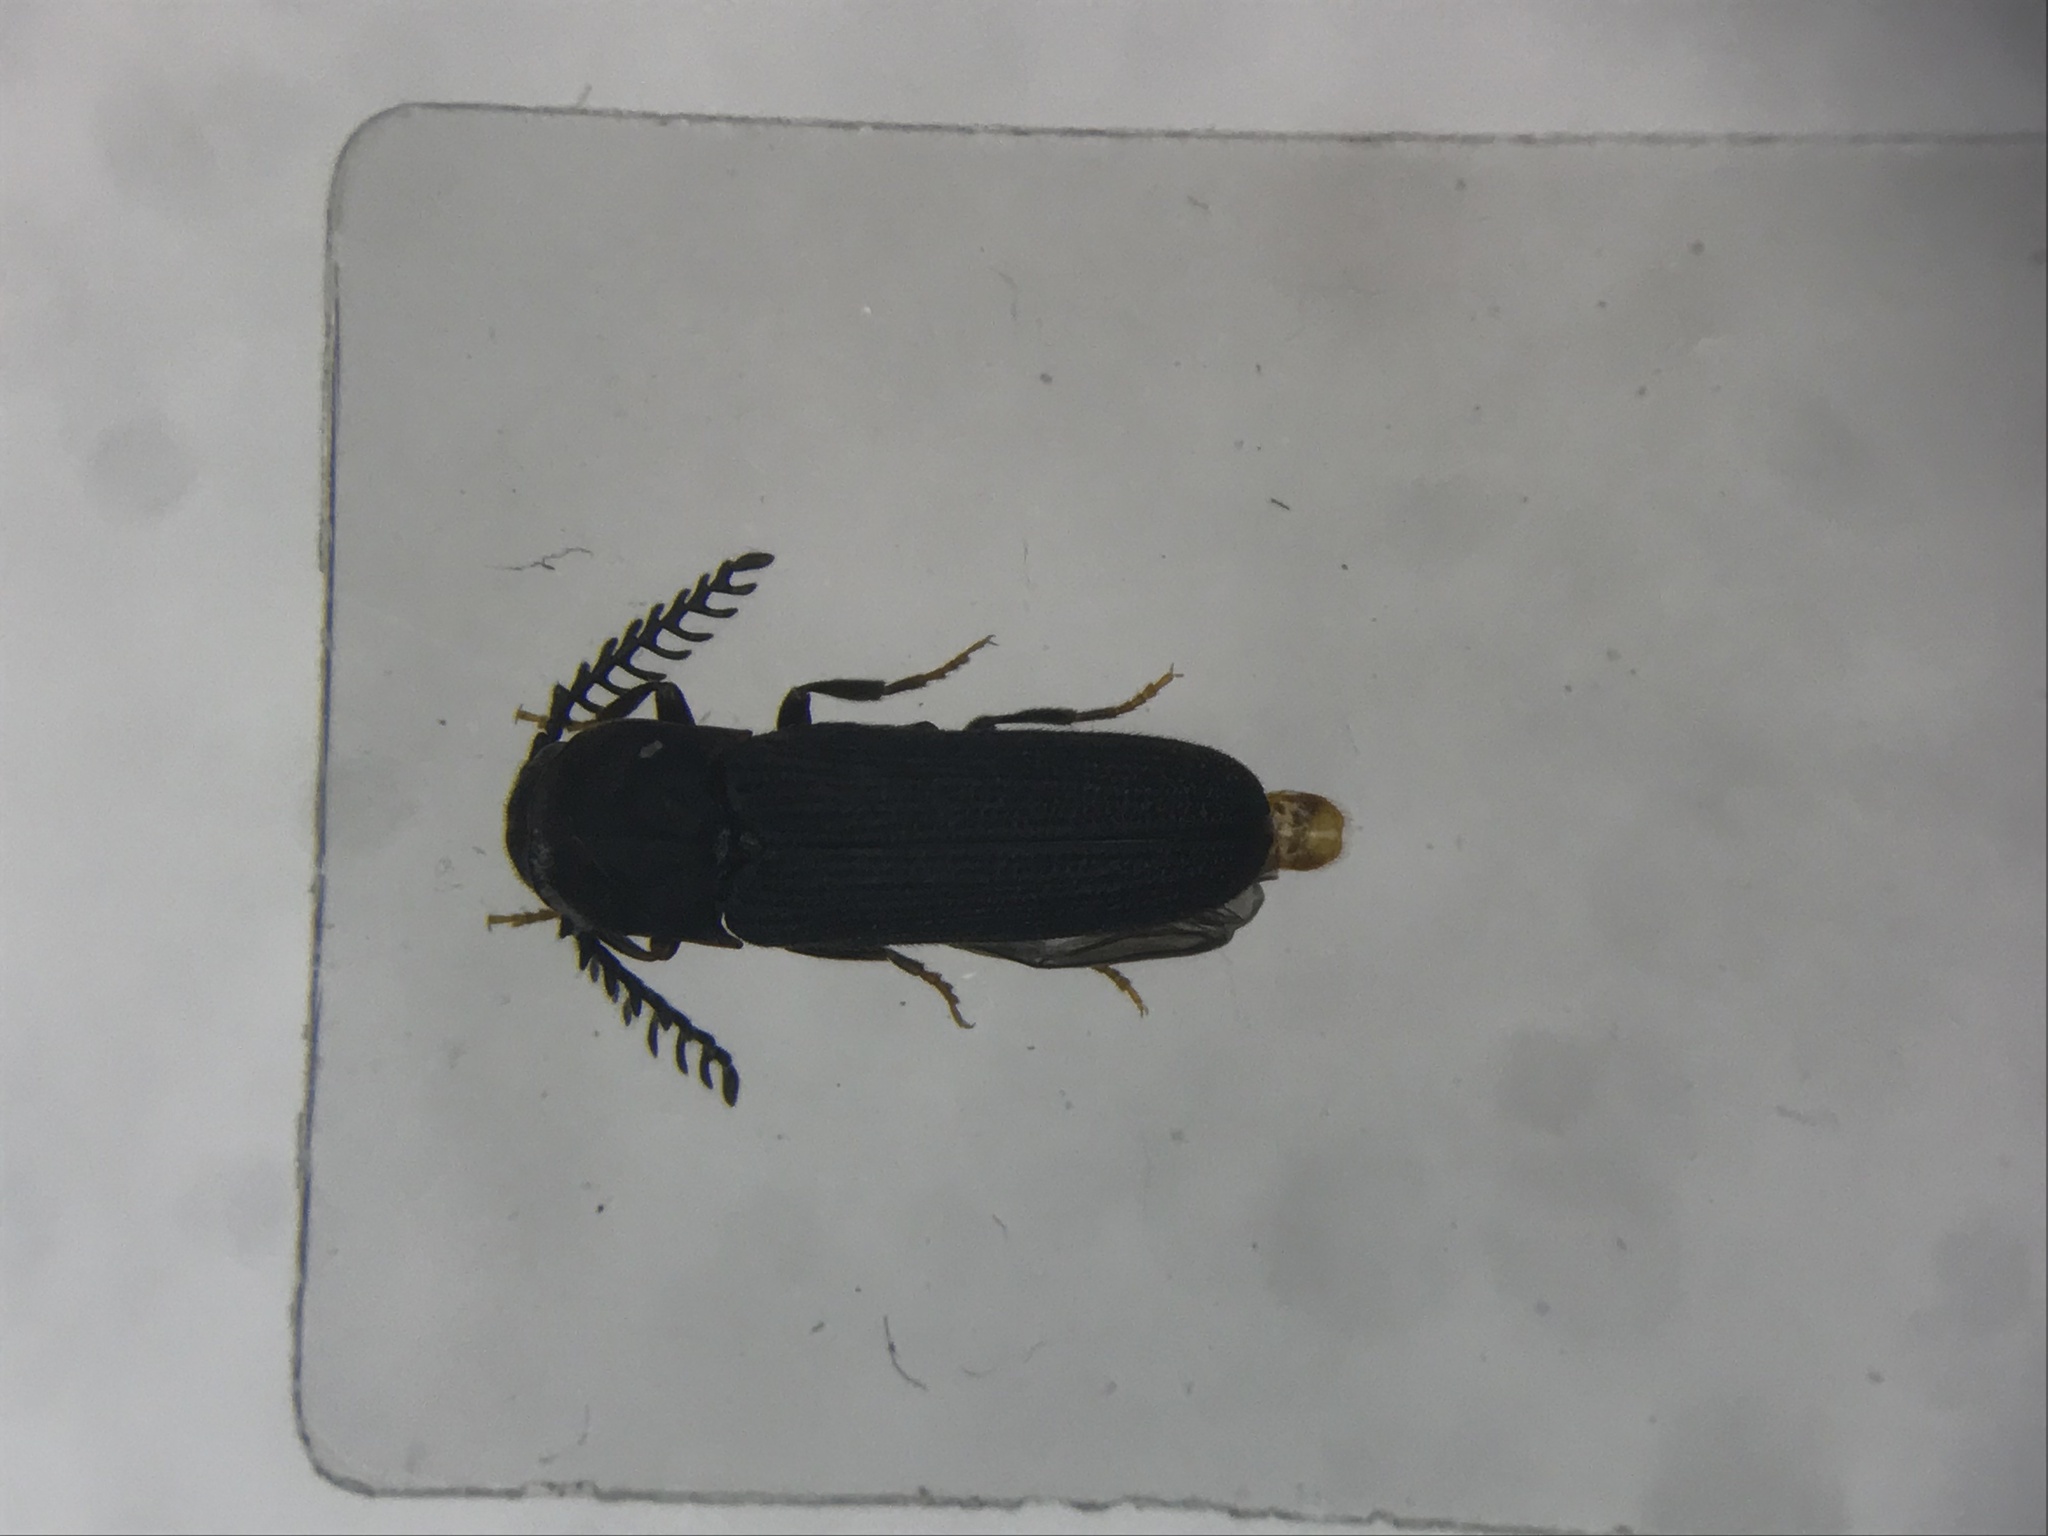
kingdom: Animalia
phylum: Arthropoda
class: Insecta
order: Coleoptera
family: Eucnemidae
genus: Sarpedon
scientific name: Sarpedon scabrosus
